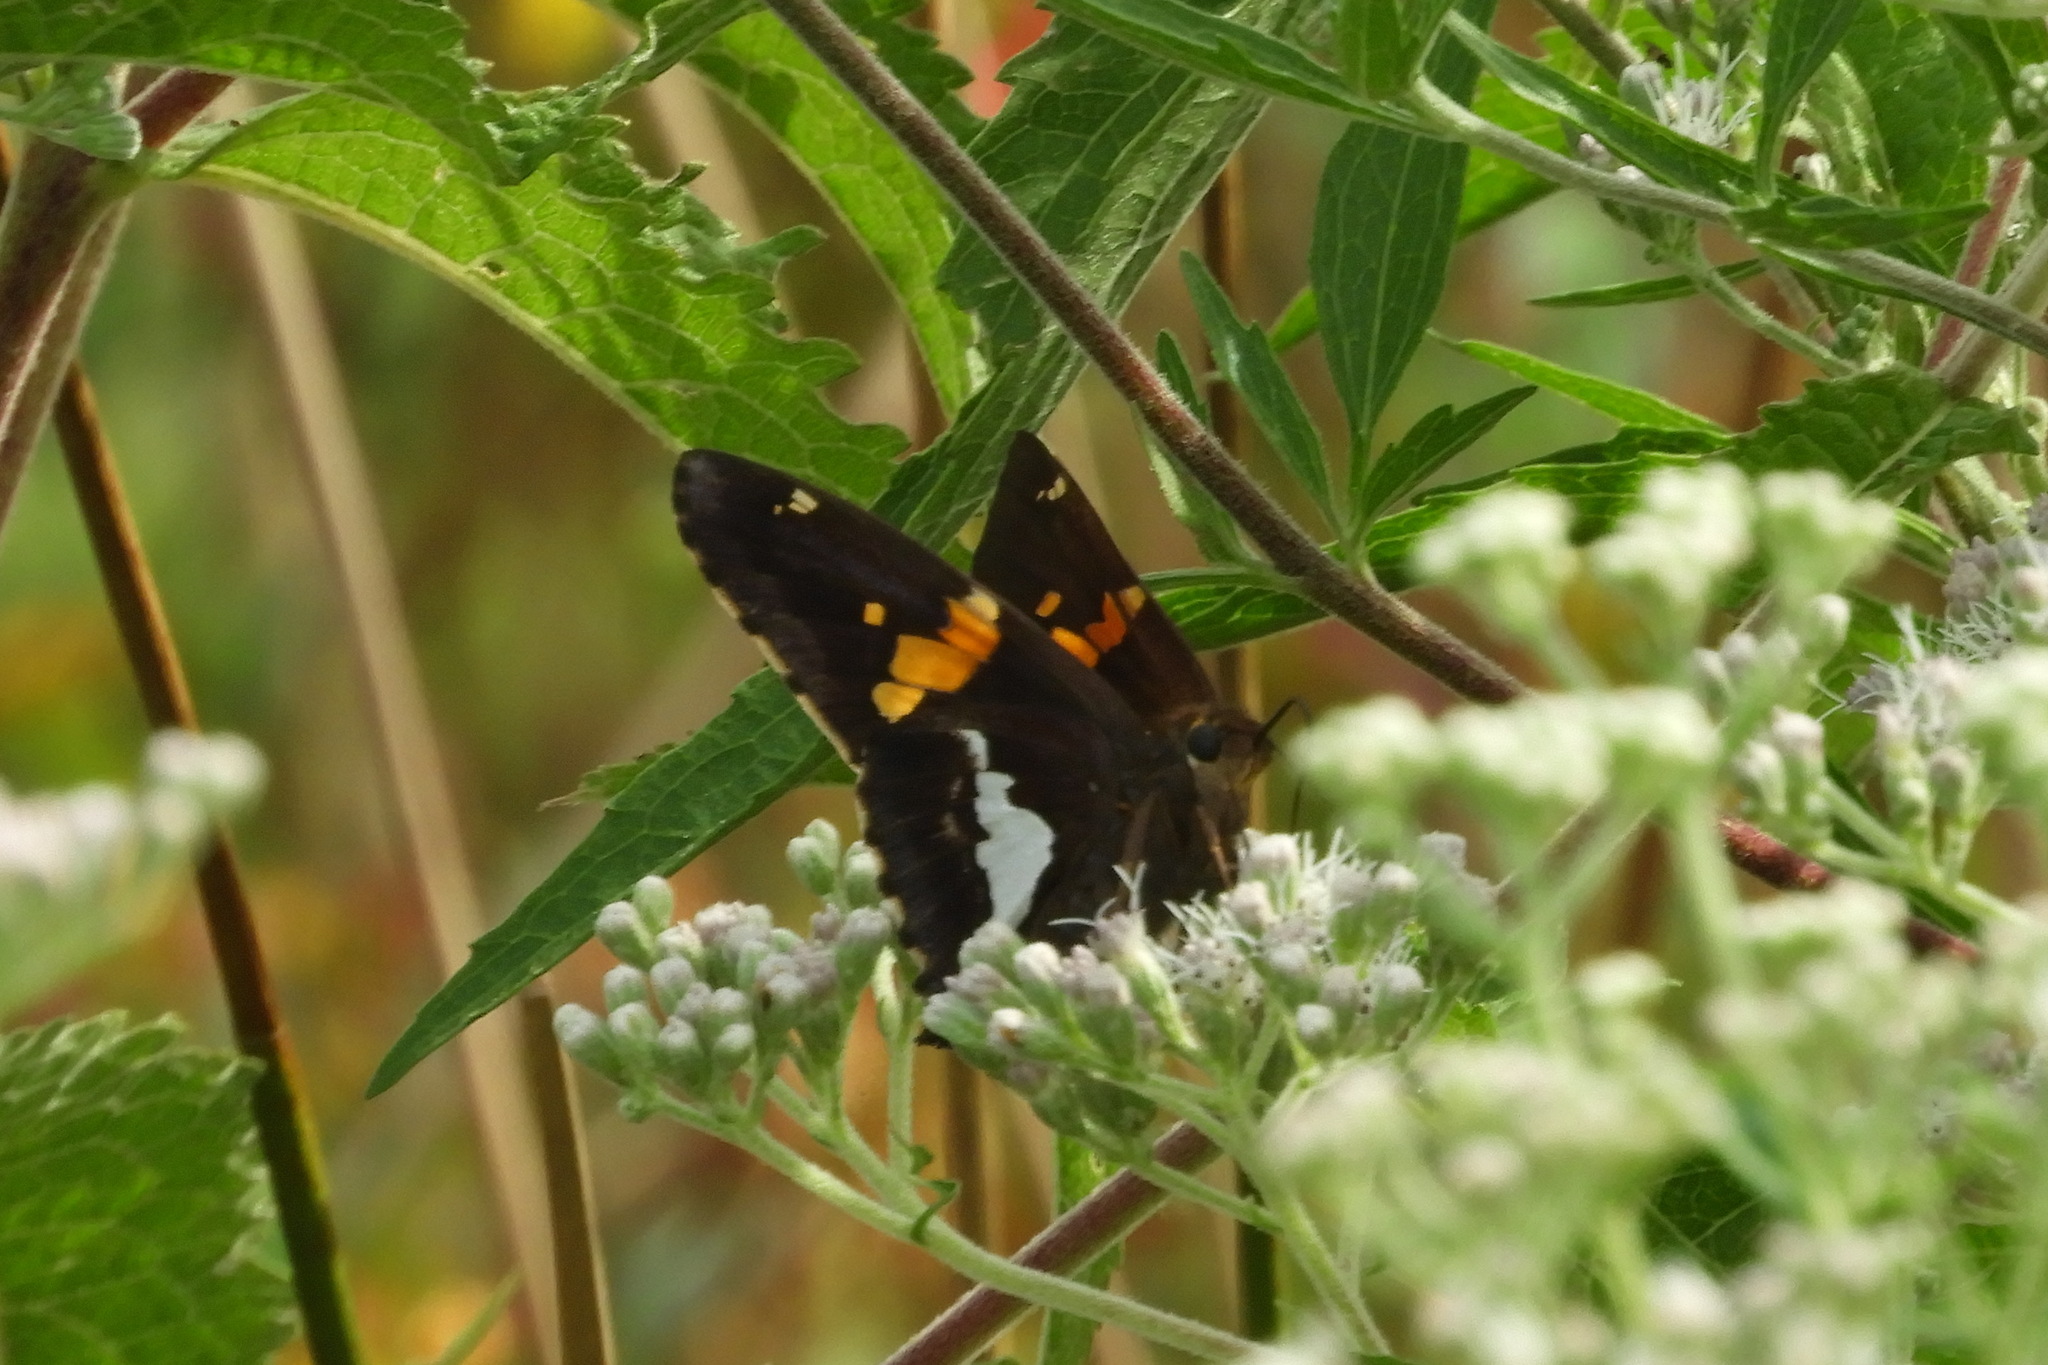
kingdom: Animalia
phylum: Arthropoda
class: Insecta
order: Lepidoptera
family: Hesperiidae
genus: Epargyreus
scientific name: Epargyreus clarus
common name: Silver-spotted skipper
